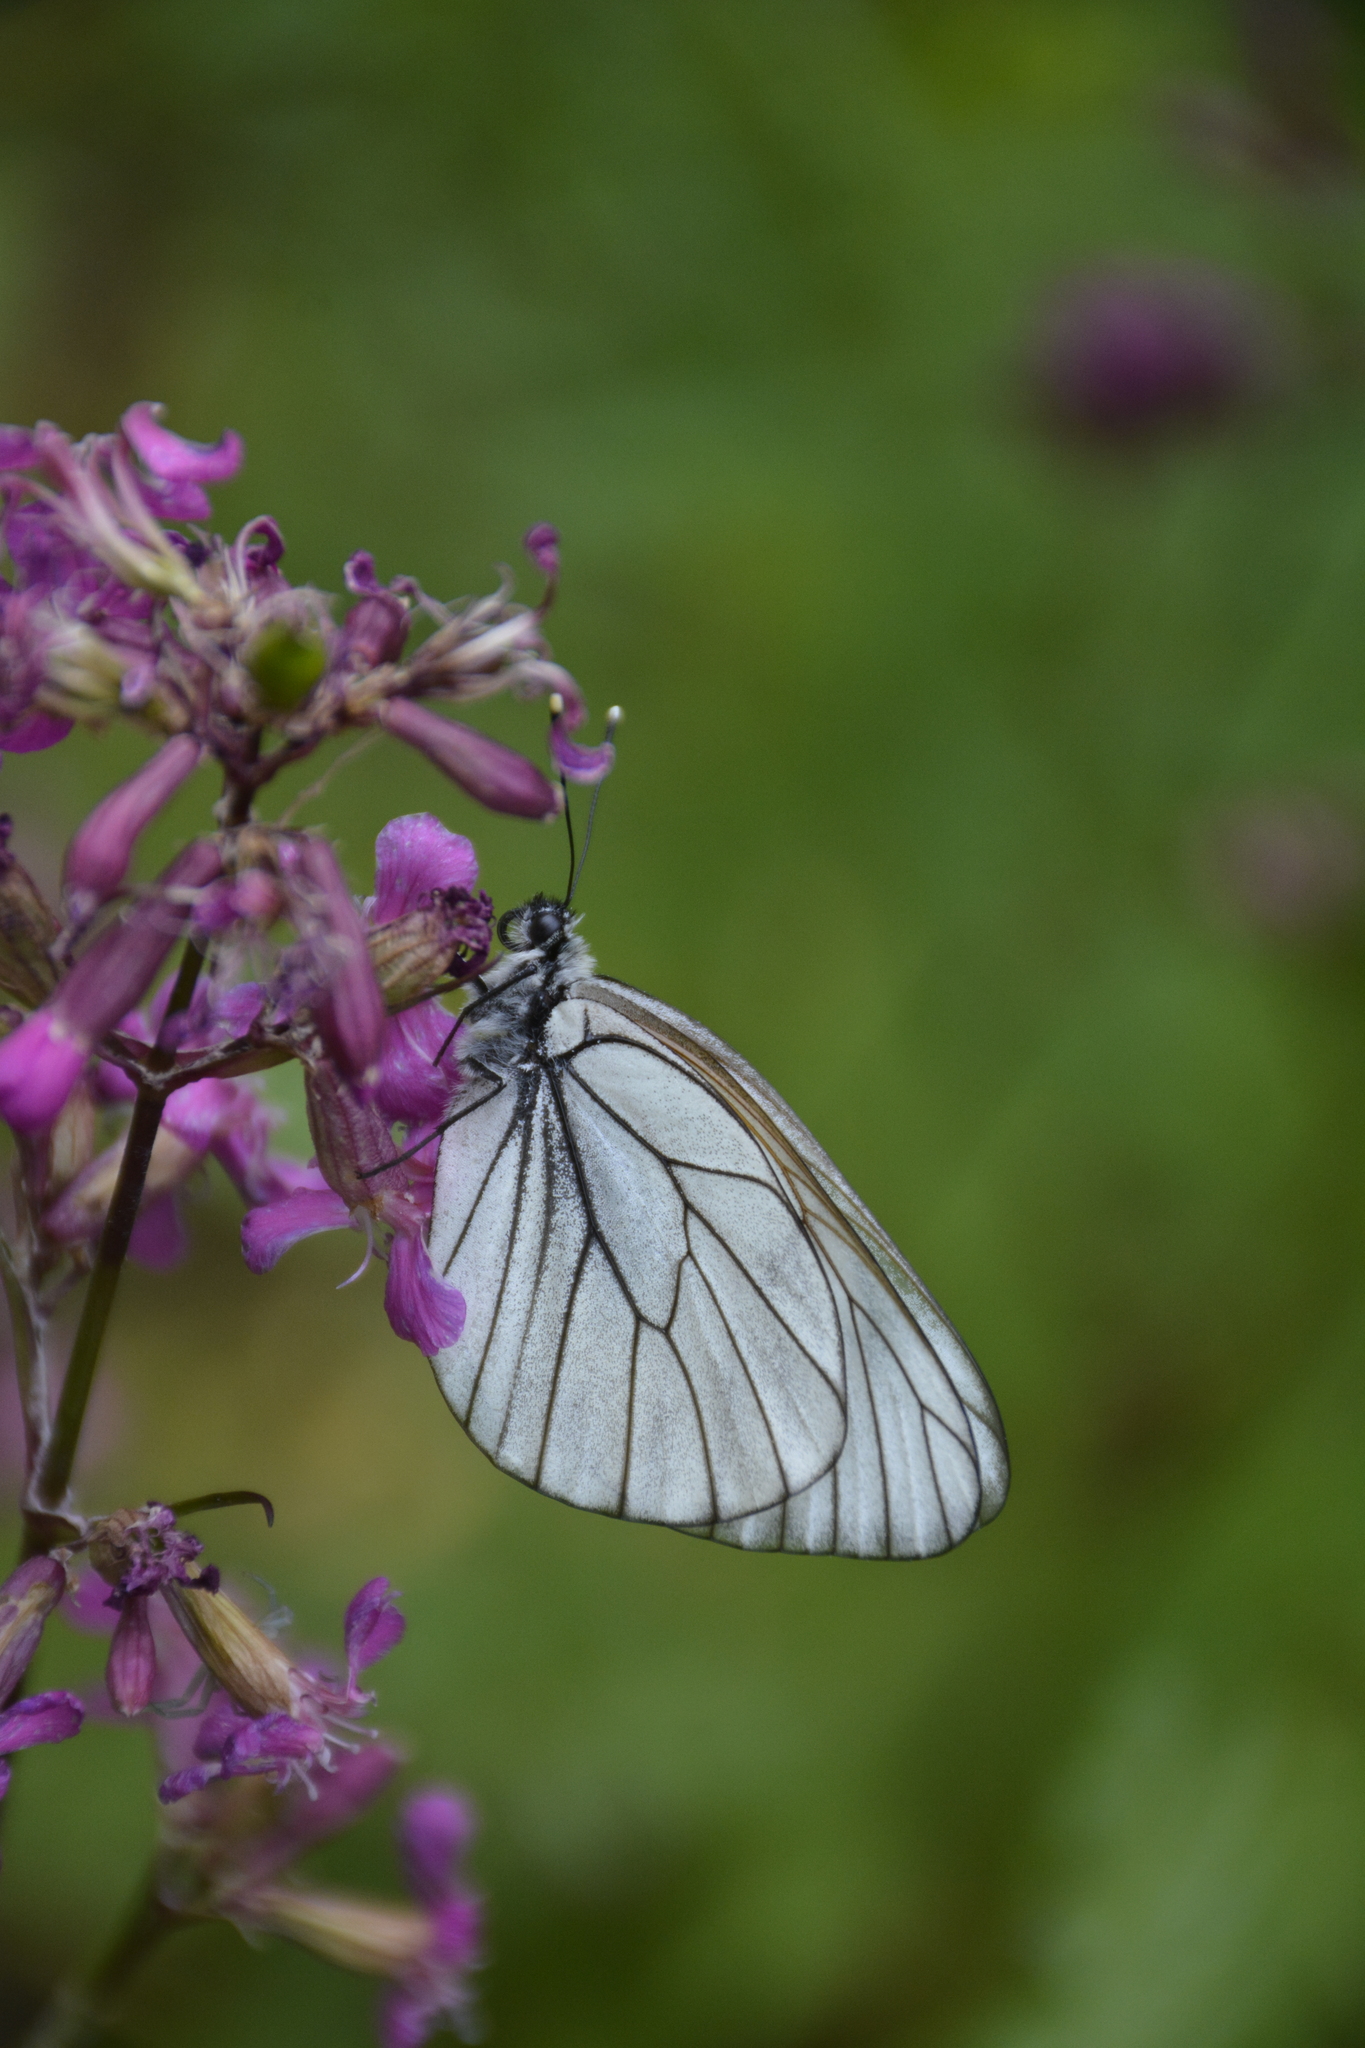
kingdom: Animalia
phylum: Arthropoda
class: Insecta
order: Lepidoptera
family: Pieridae
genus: Aporia
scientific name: Aporia crataegi
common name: Black-veined white
